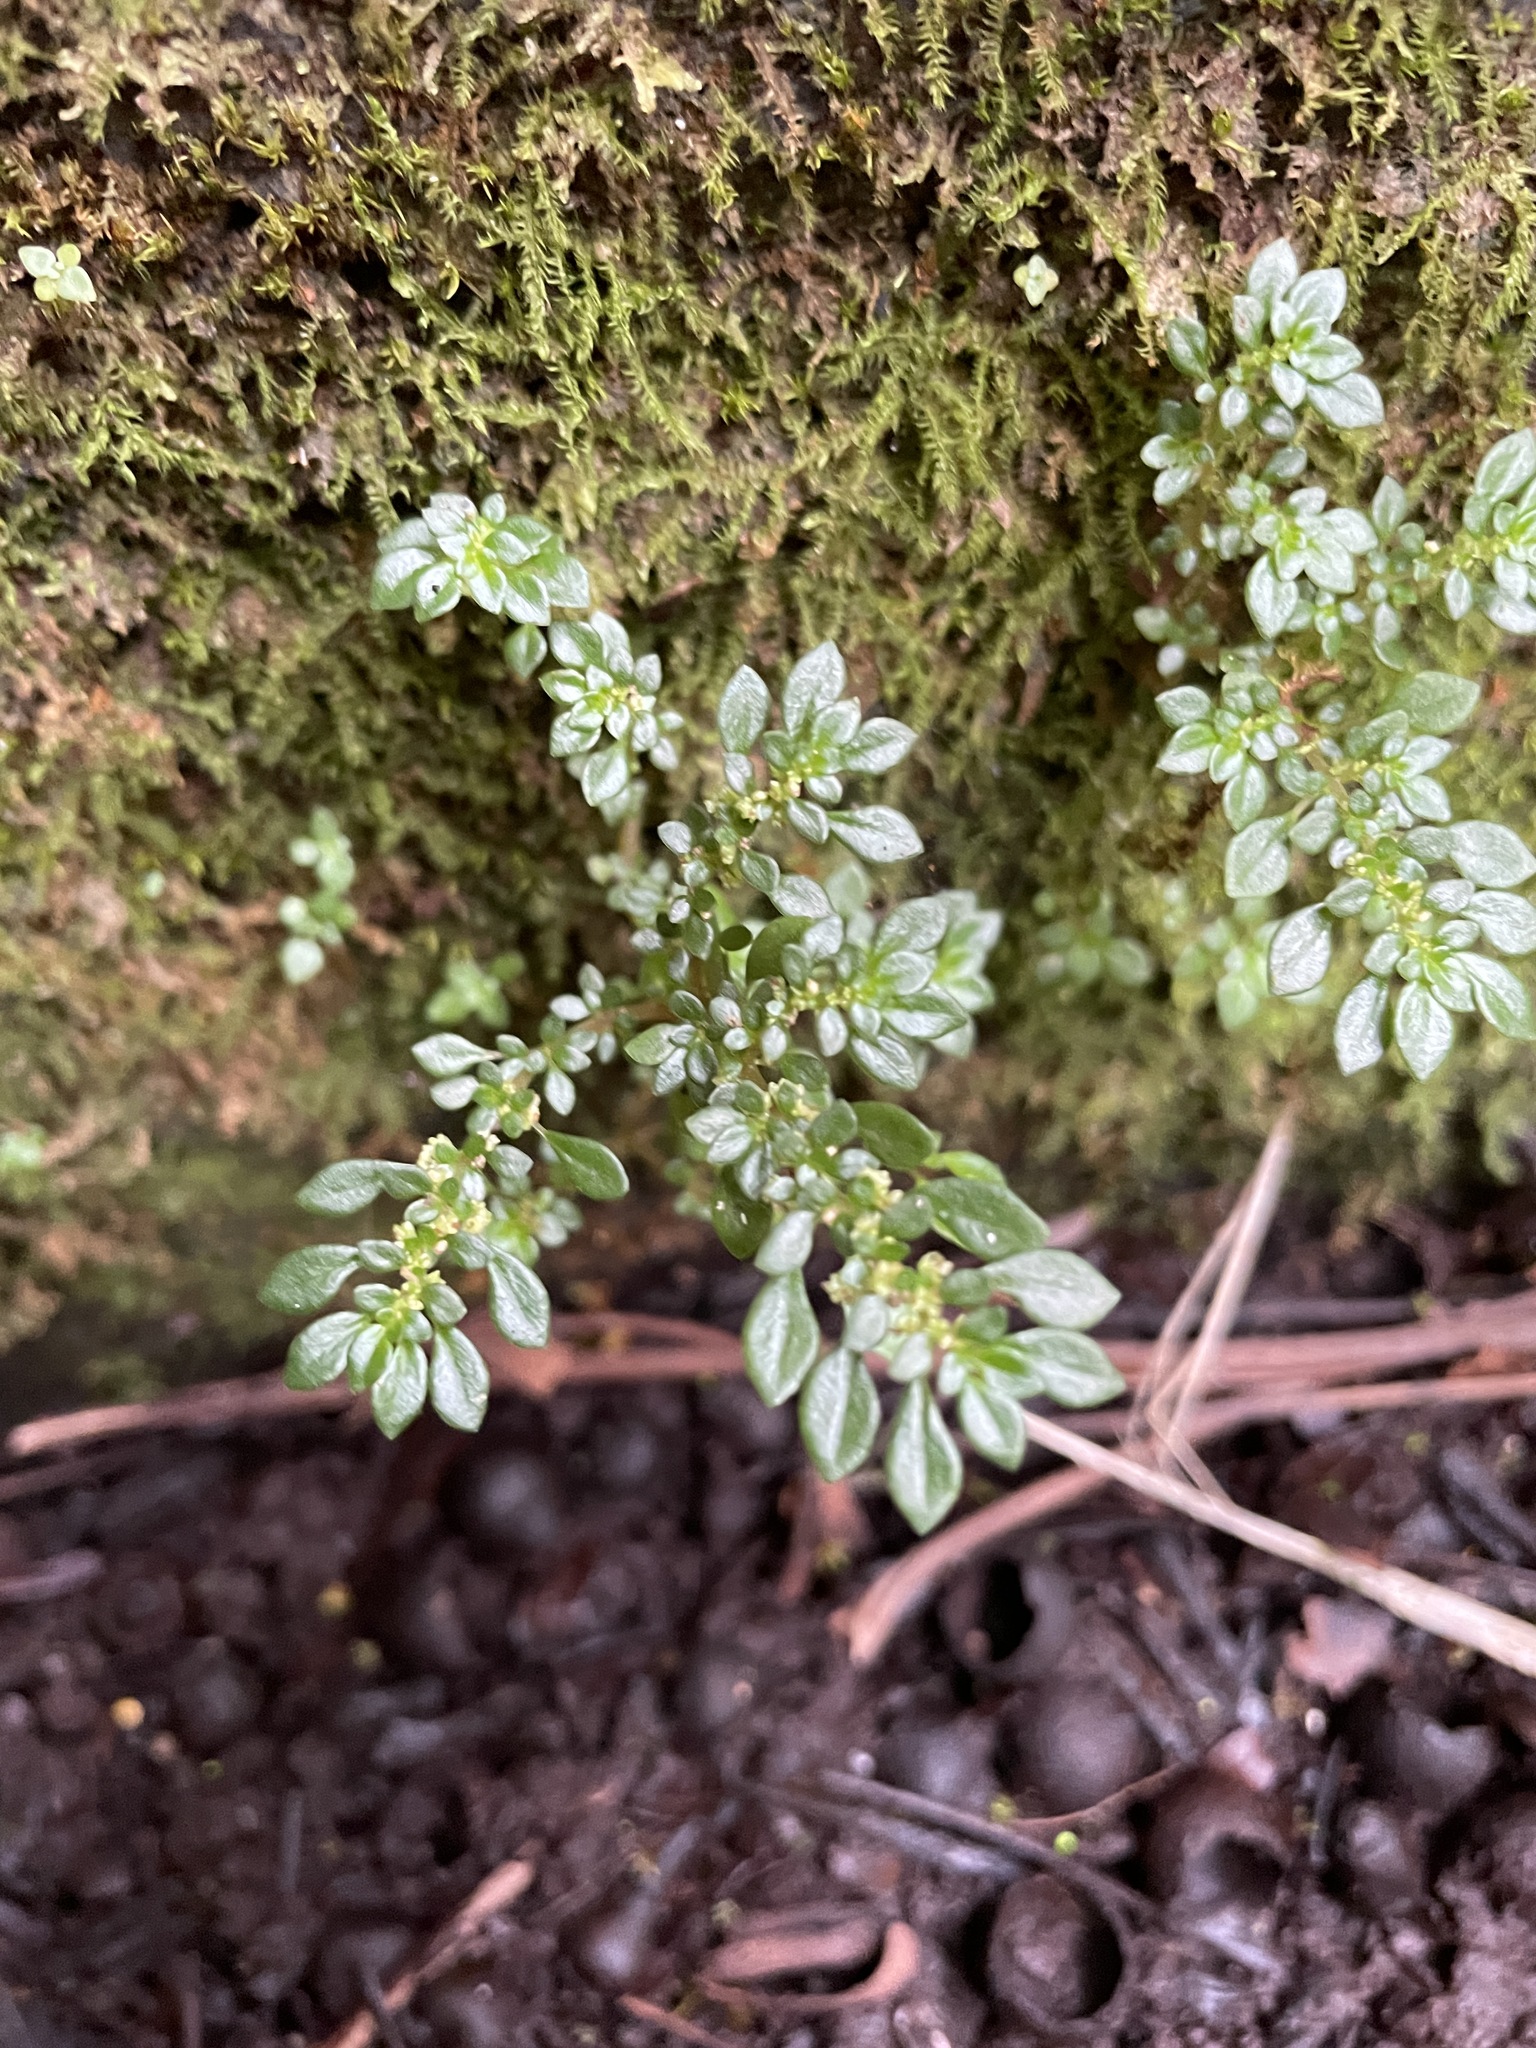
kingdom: Plantae
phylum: Tracheophyta
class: Magnoliopsida
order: Rosales
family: Urticaceae
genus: Pilea
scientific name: Pilea microphylla
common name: Artillery-plant
